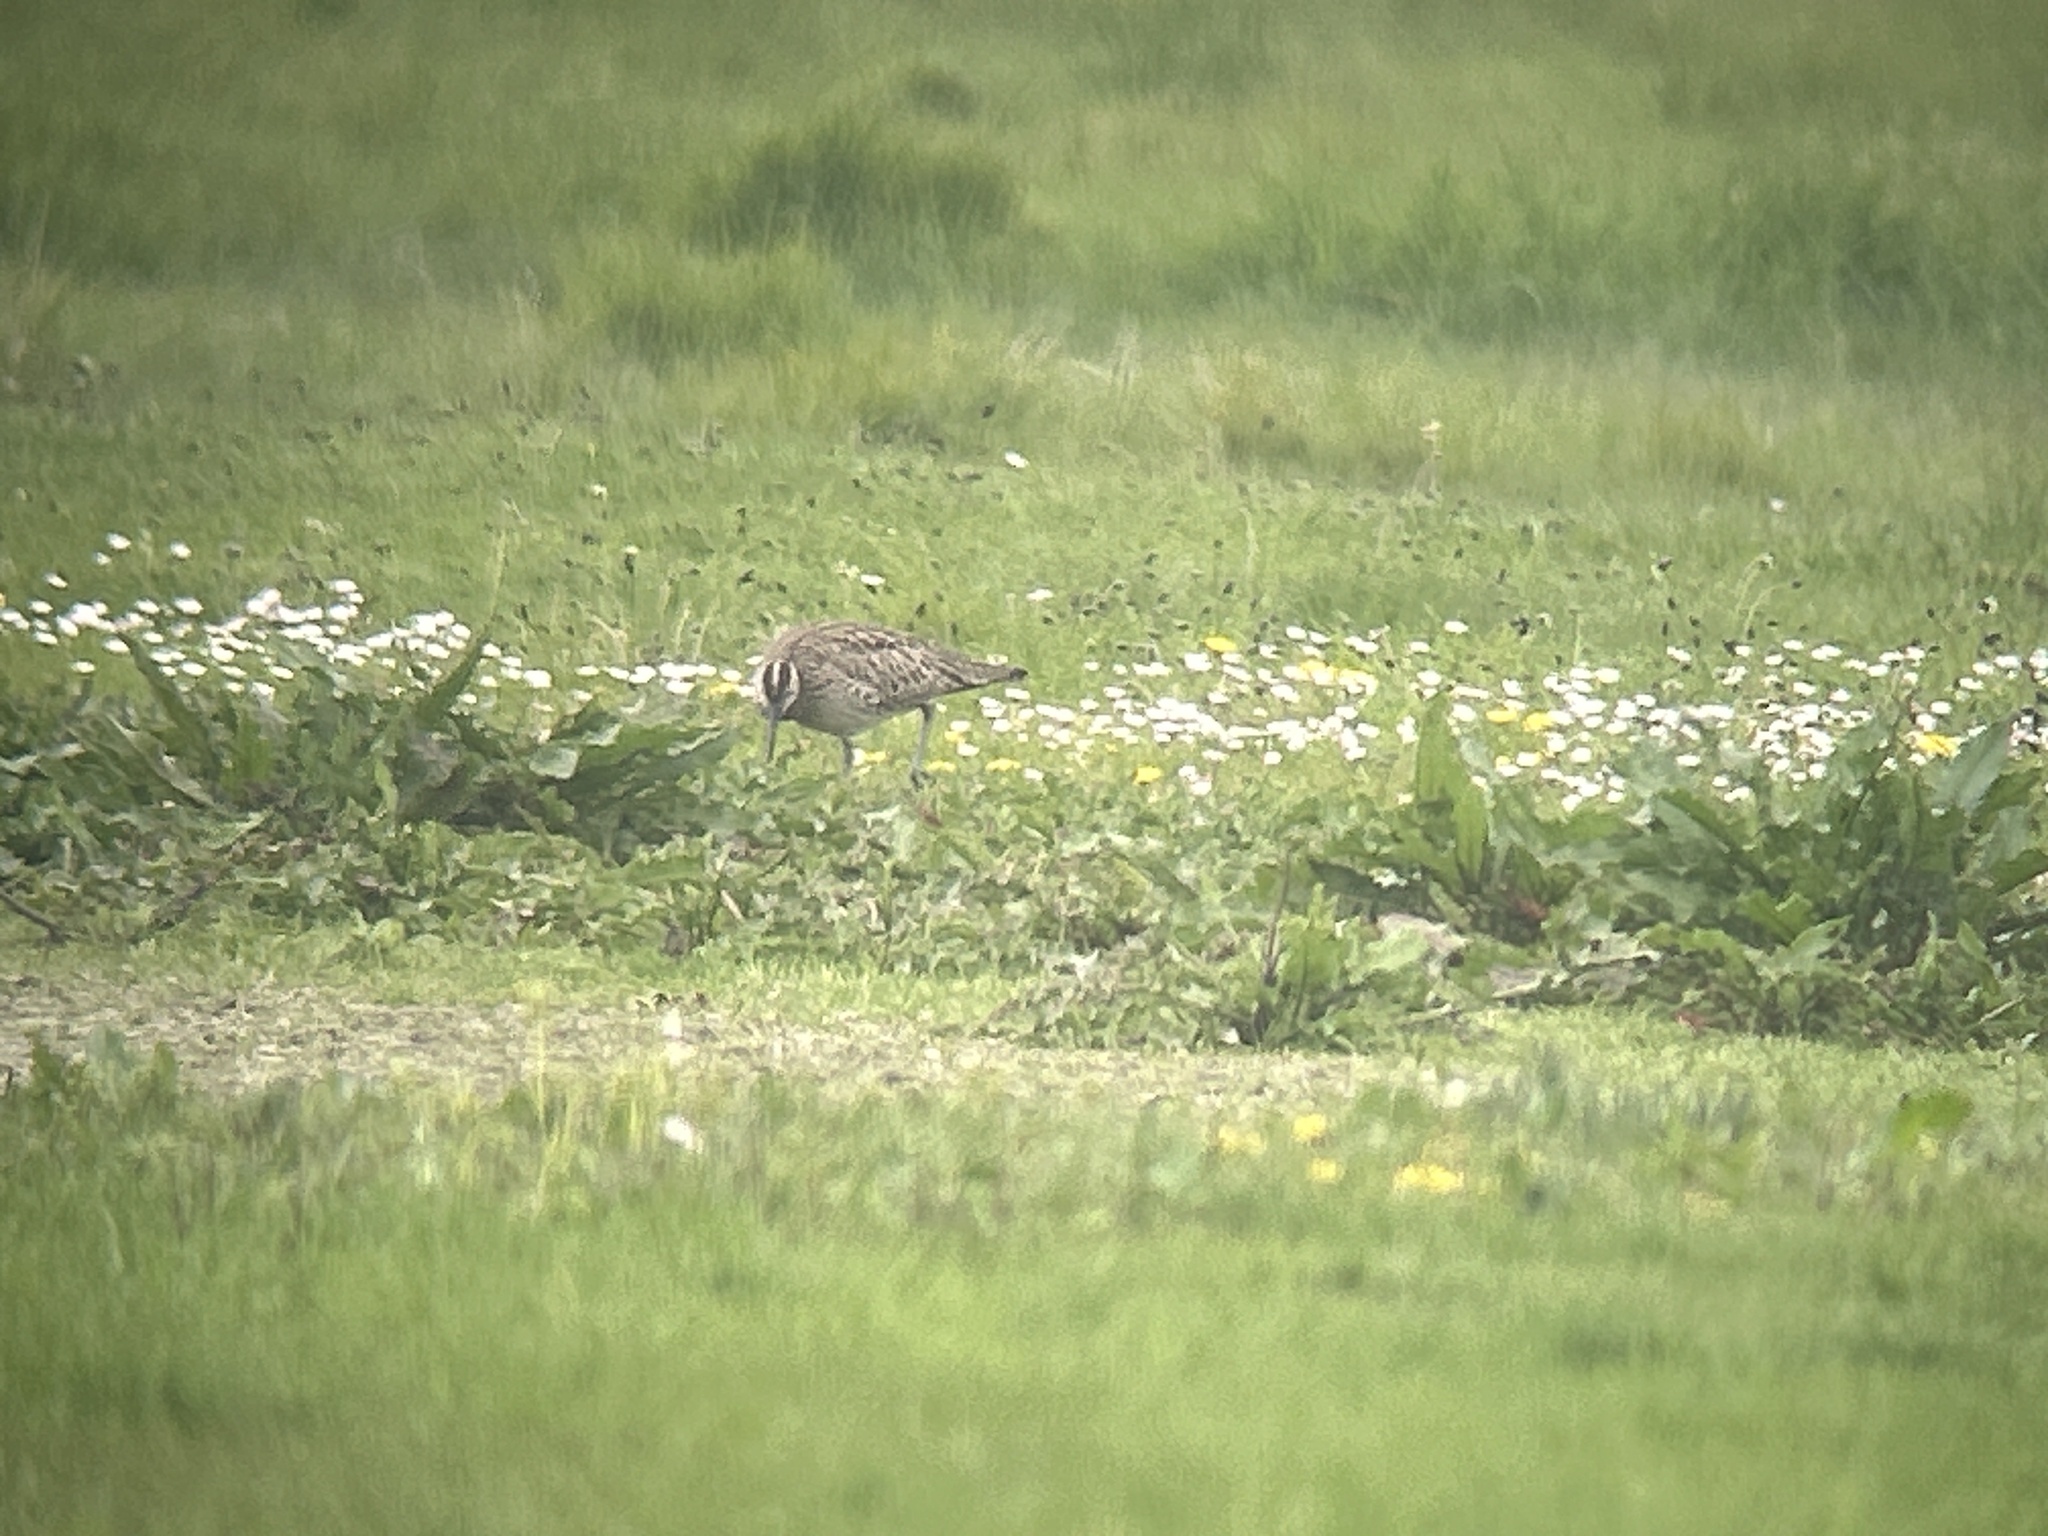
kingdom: Animalia
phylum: Chordata
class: Aves
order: Charadriiformes
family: Scolopacidae
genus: Numenius
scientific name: Numenius phaeopus
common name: Whimbrel
